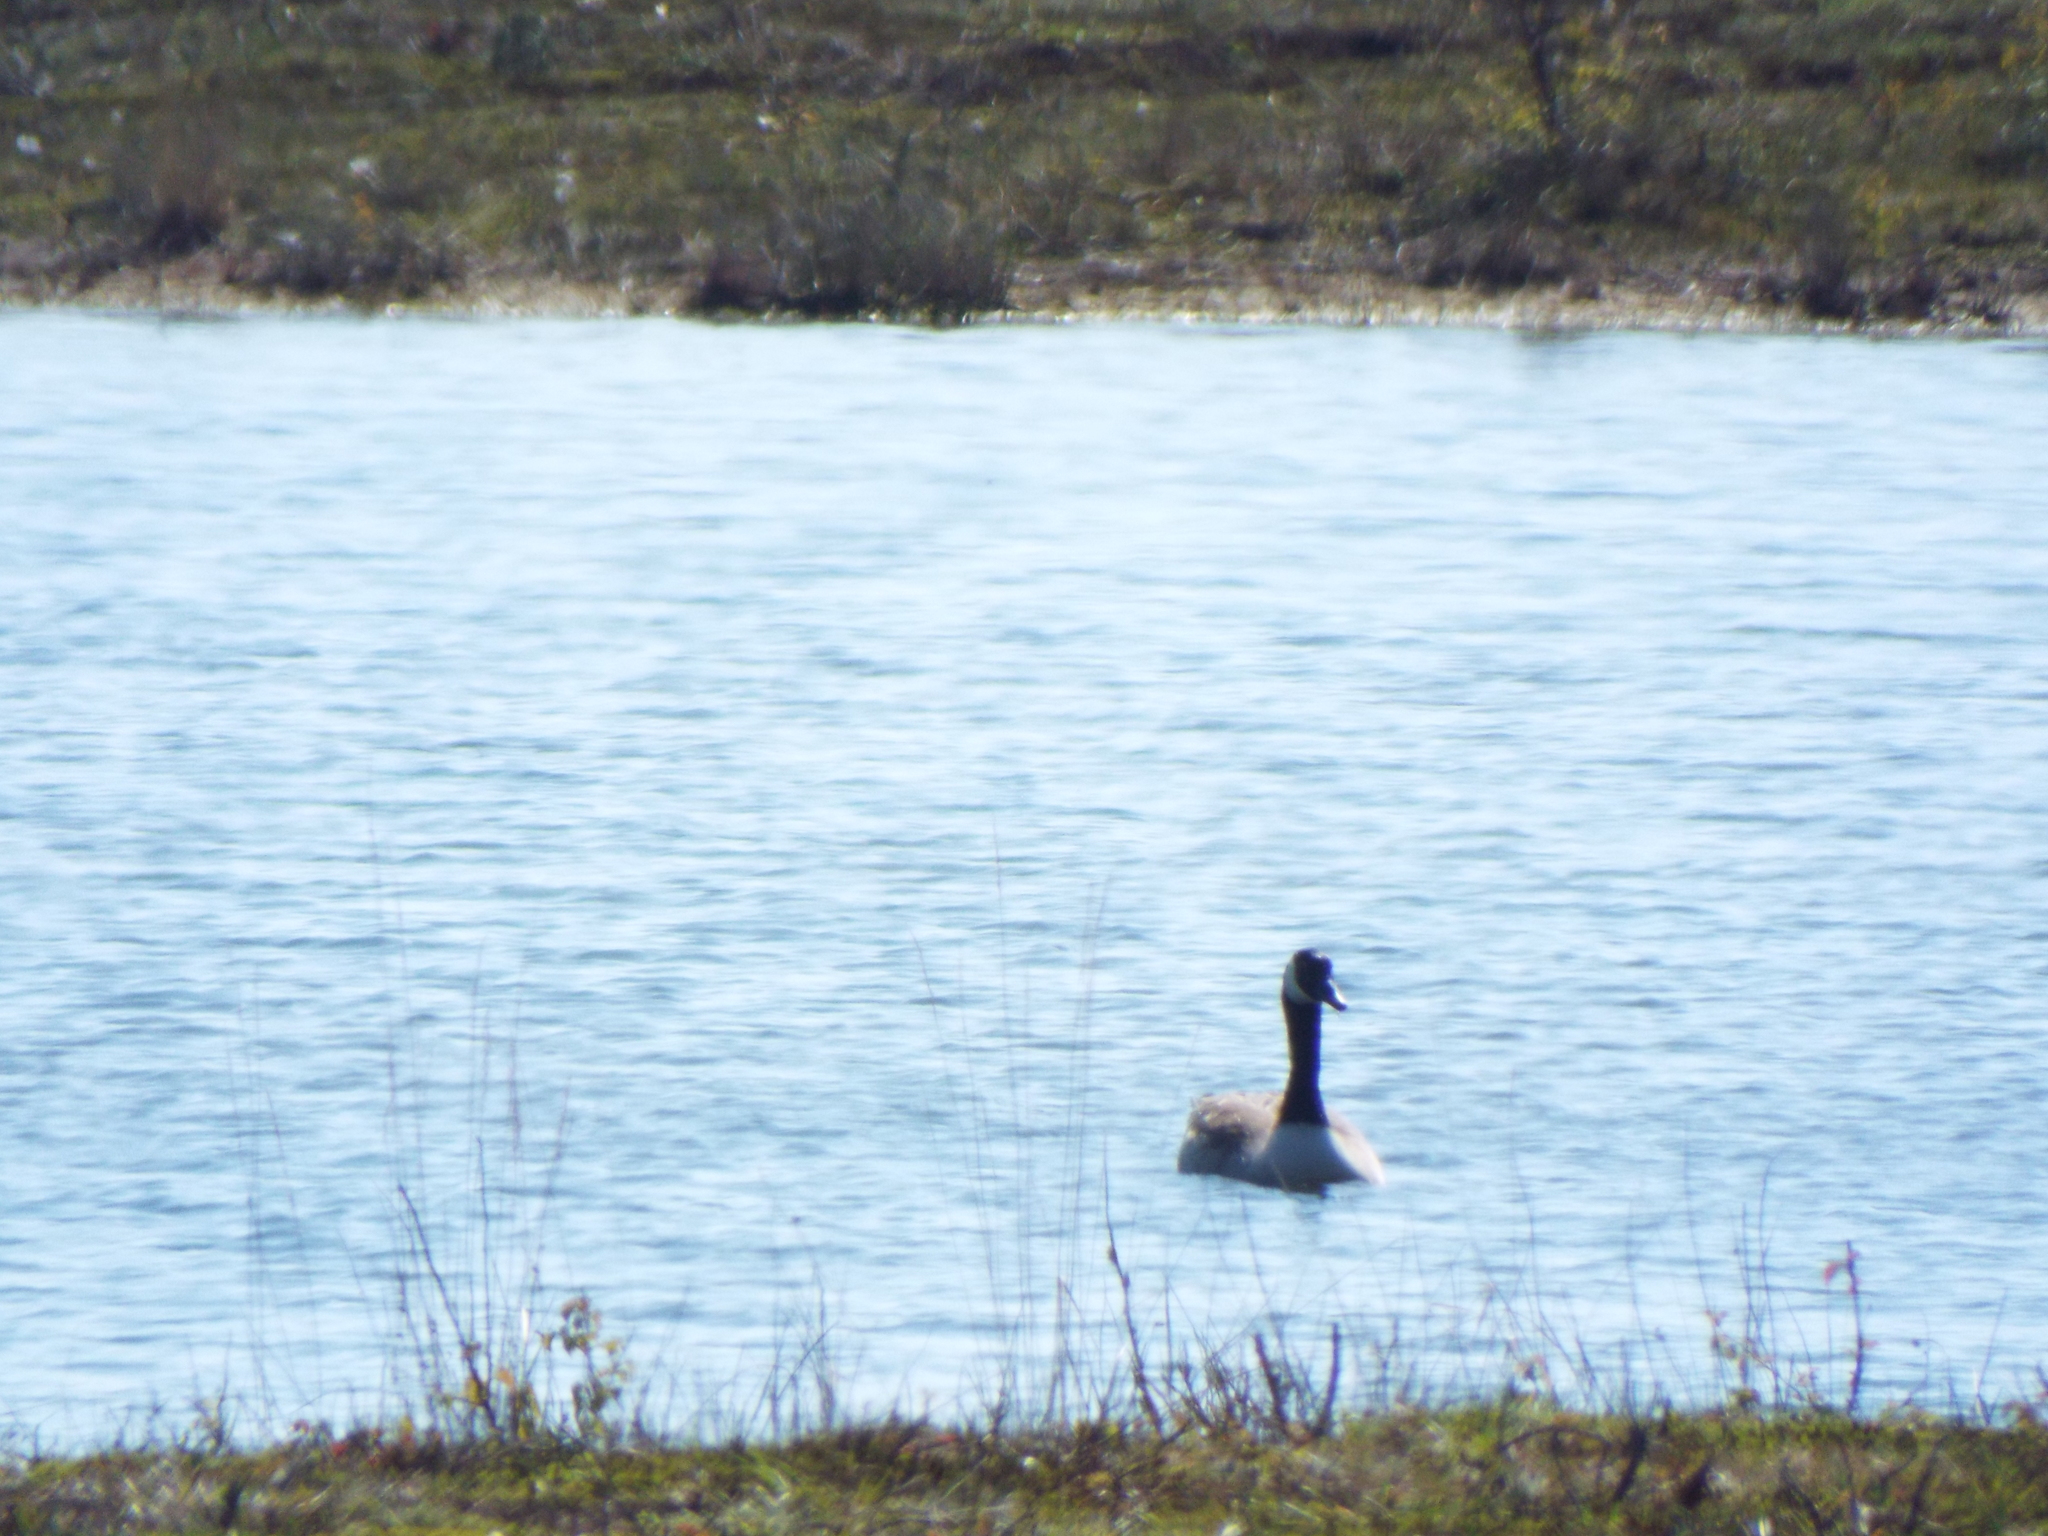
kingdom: Animalia
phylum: Chordata
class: Aves
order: Anseriformes
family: Anatidae
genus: Branta
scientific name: Branta canadensis
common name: Canada goose
